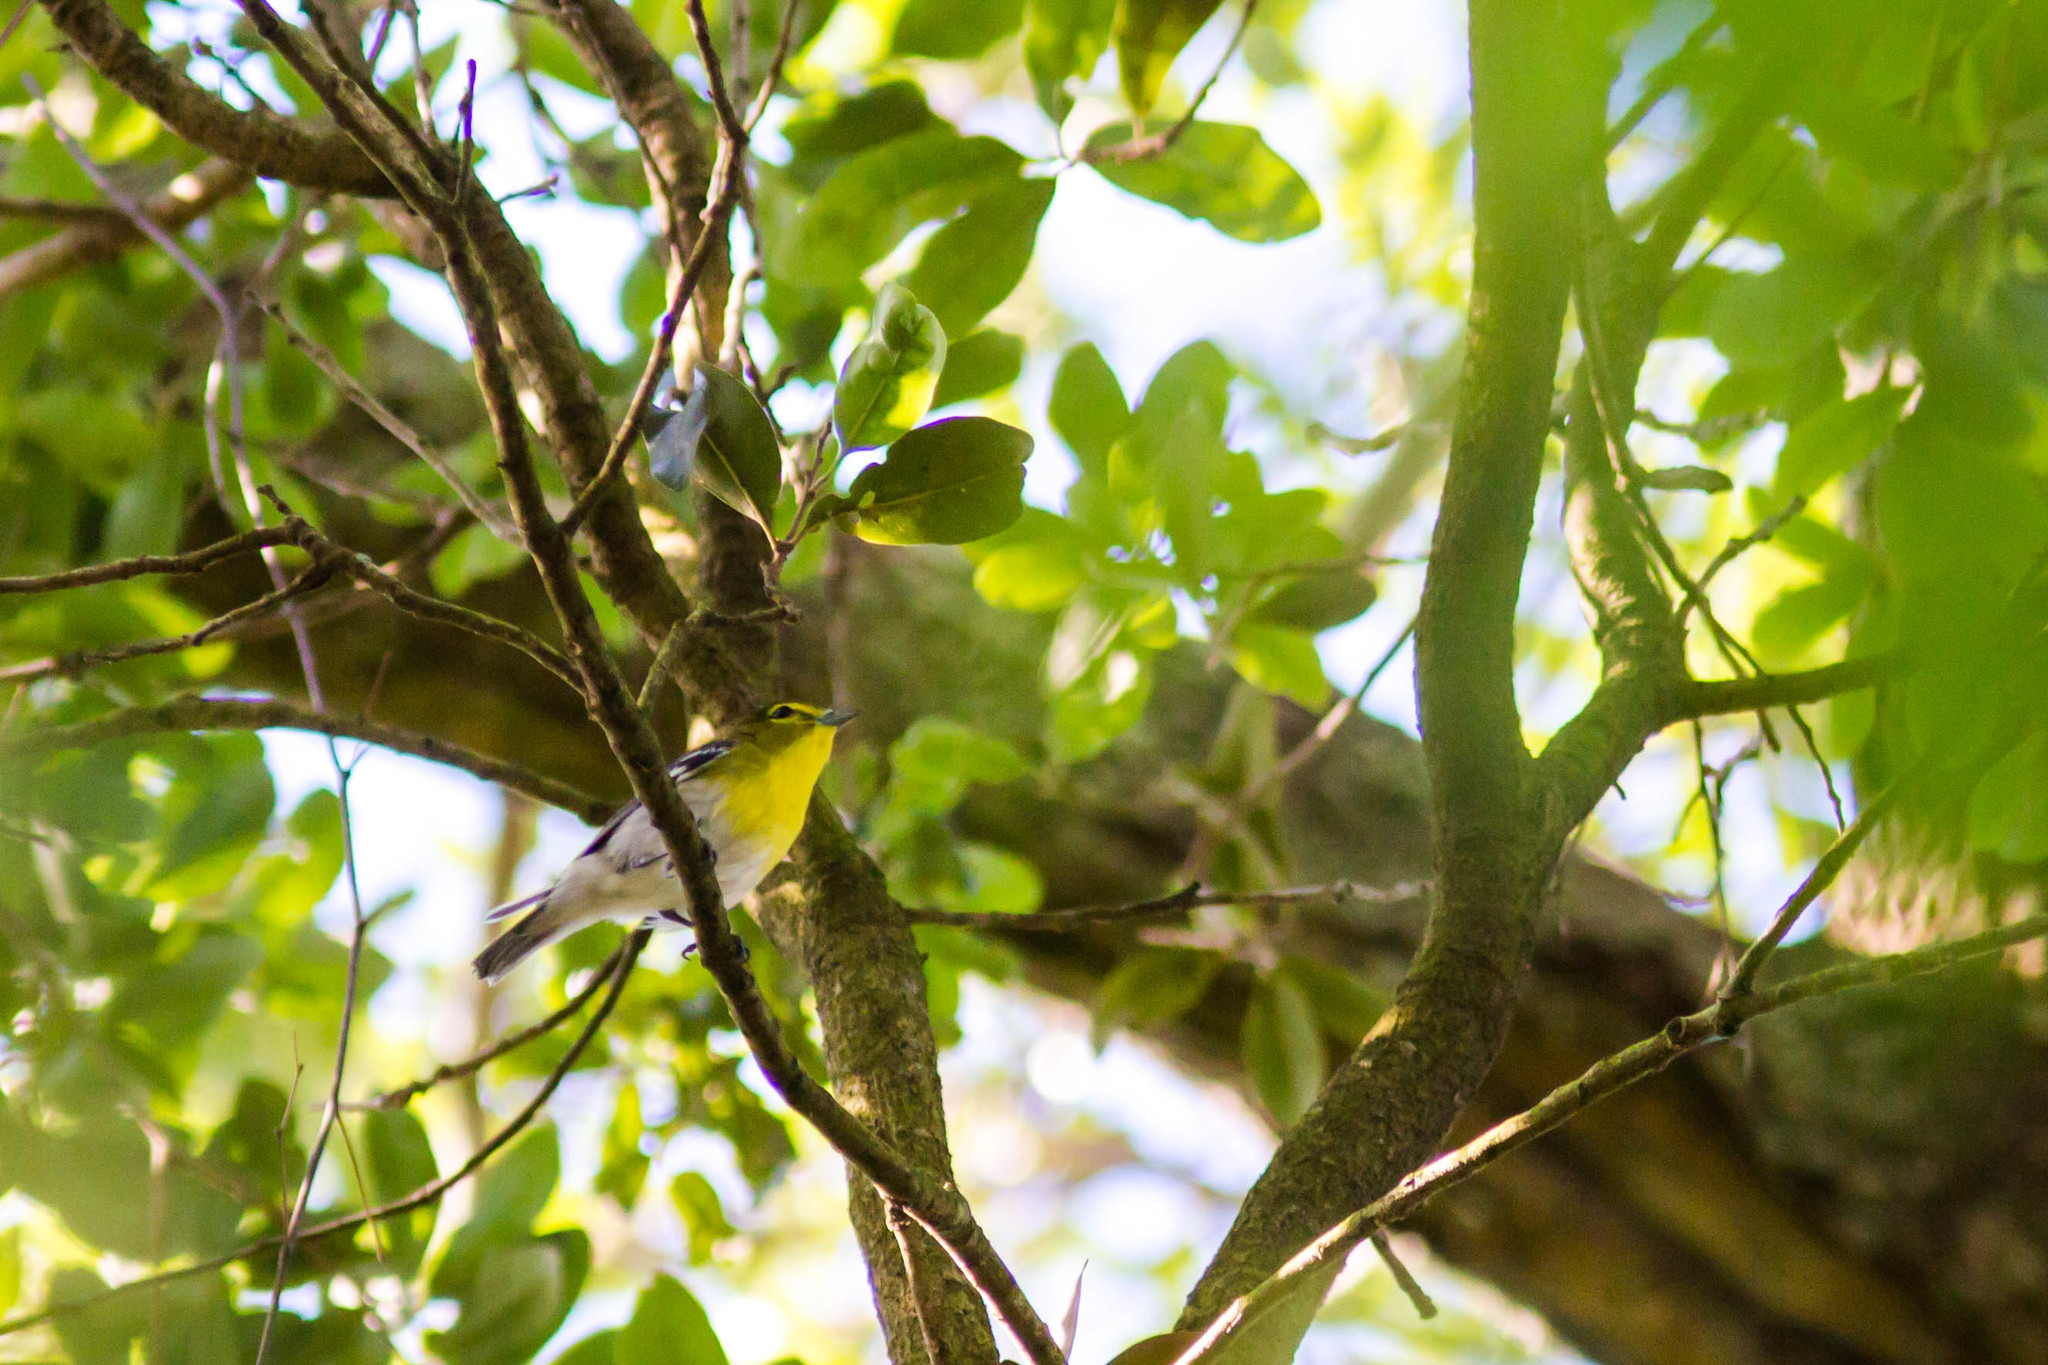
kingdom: Animalia
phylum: Chordata
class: Aves
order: Passeriformes
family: Vireonidae
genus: Vireo
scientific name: Vireo flavifrons
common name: Yellow-throated vireo
